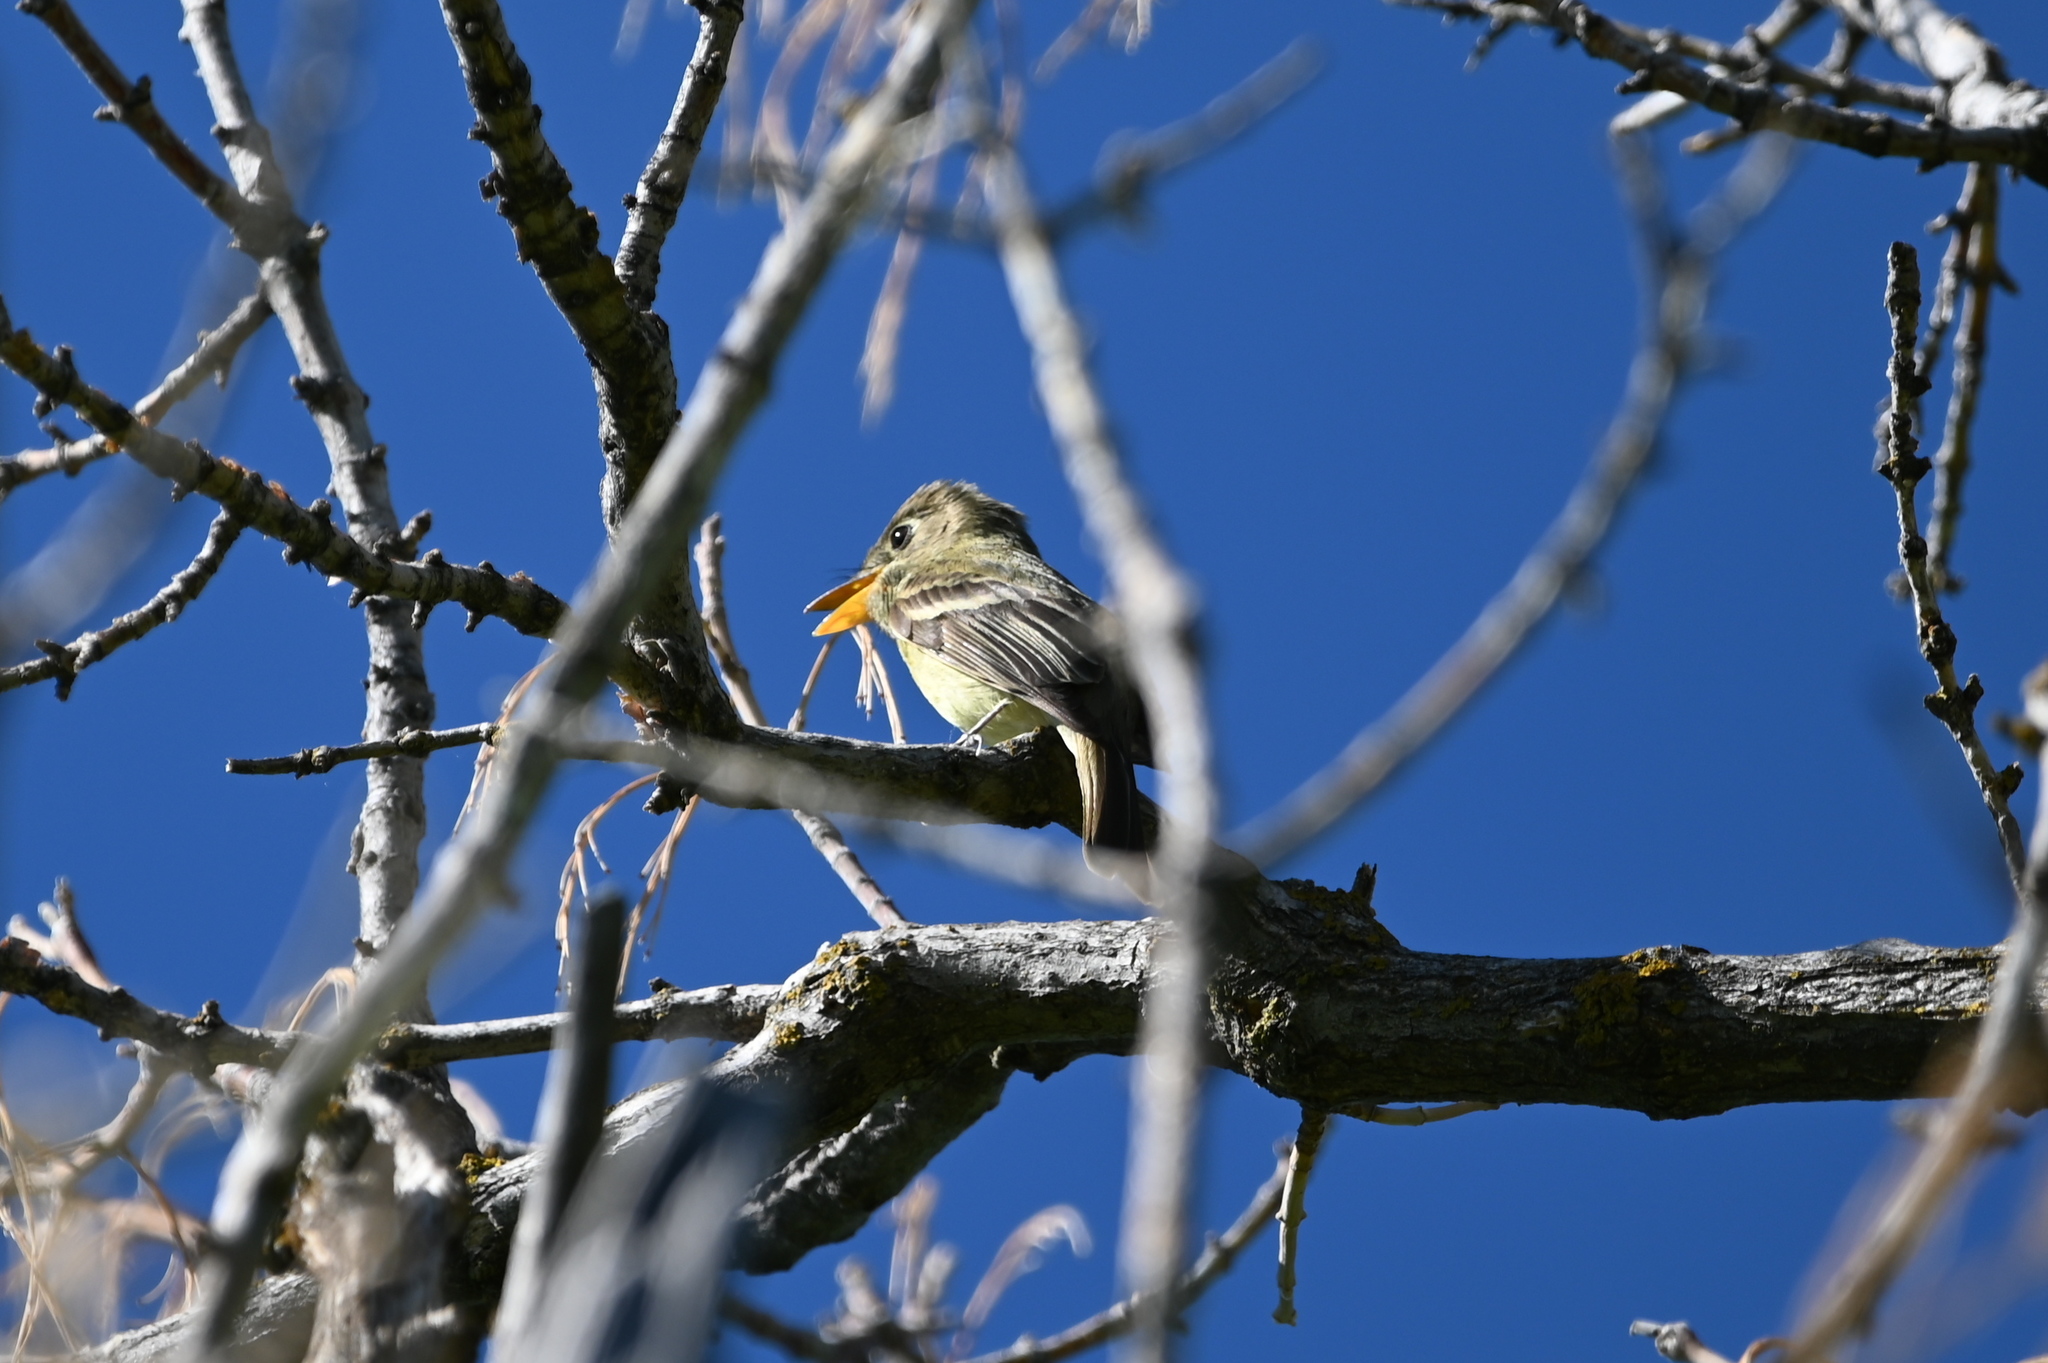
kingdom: Animalia
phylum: Chordata
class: Aves
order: Passeriformes
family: Tyrannidae
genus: Empidonax
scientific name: Empidonax difficilis
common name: Pacific-slope flycatcher
